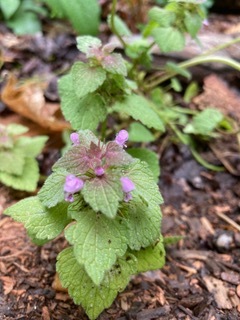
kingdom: Plantae
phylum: Tracheophyta
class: Magnoliopsida
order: Lamiales
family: Lamiaceae
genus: Lamium
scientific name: Lamium purpureum
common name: Red dead-nettle
